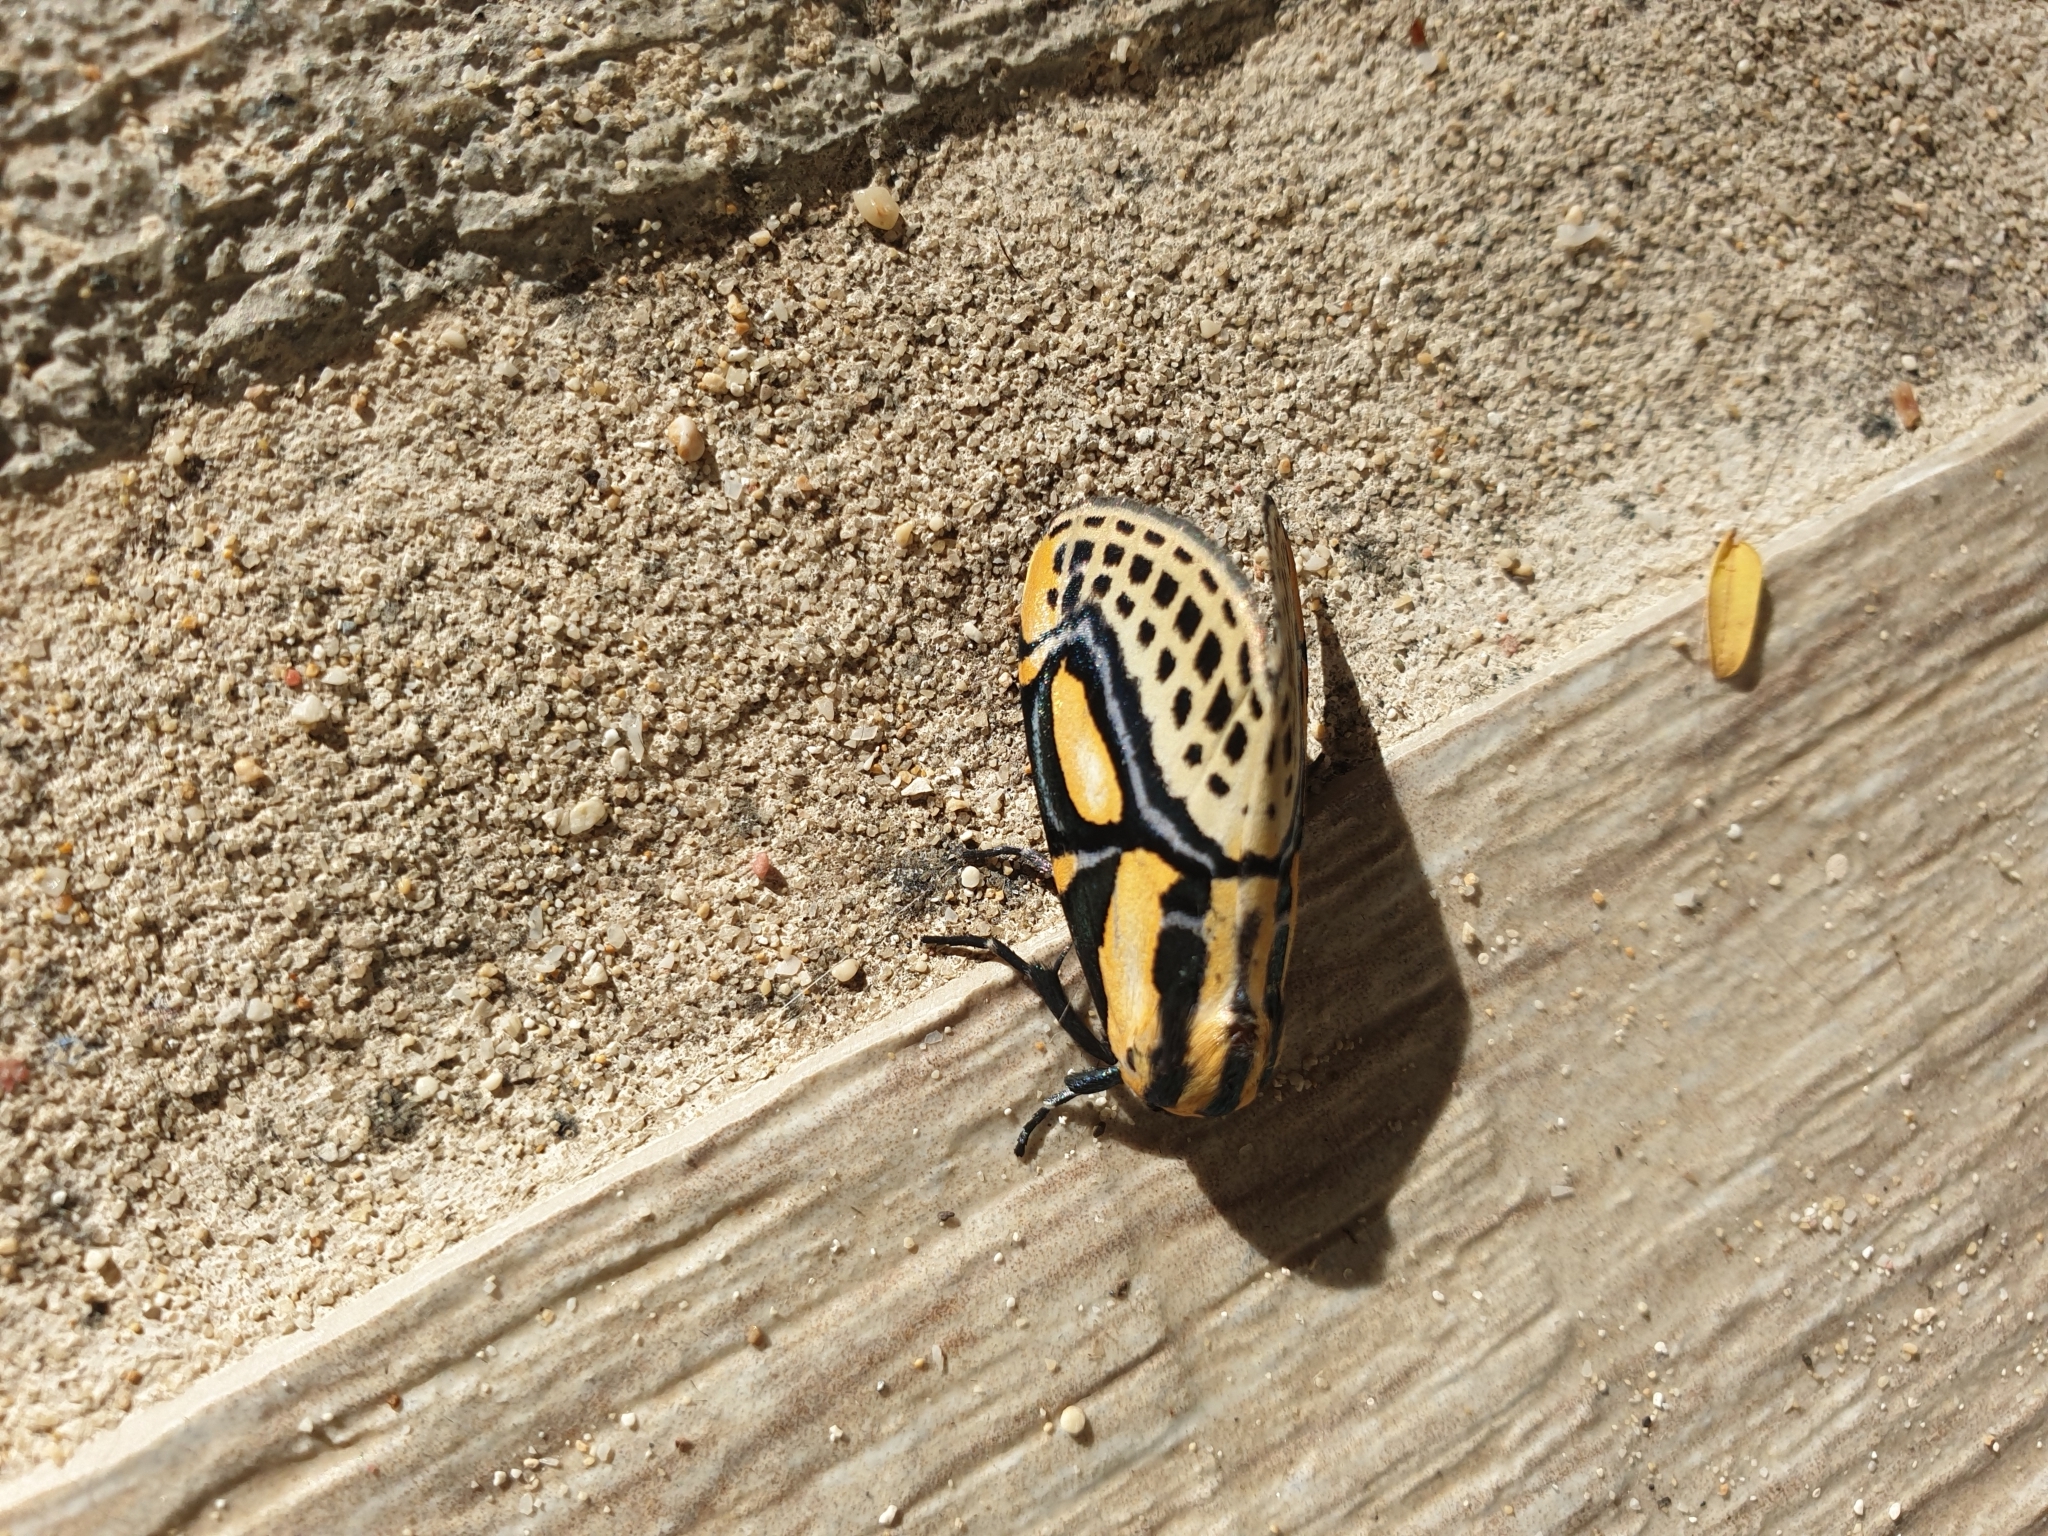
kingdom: Animalia
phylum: Arthropoda
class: Insecta
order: Lepidoptera
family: Erebidae
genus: Diphthera
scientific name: Diphthera festiva
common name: Hieroglyphic moth
